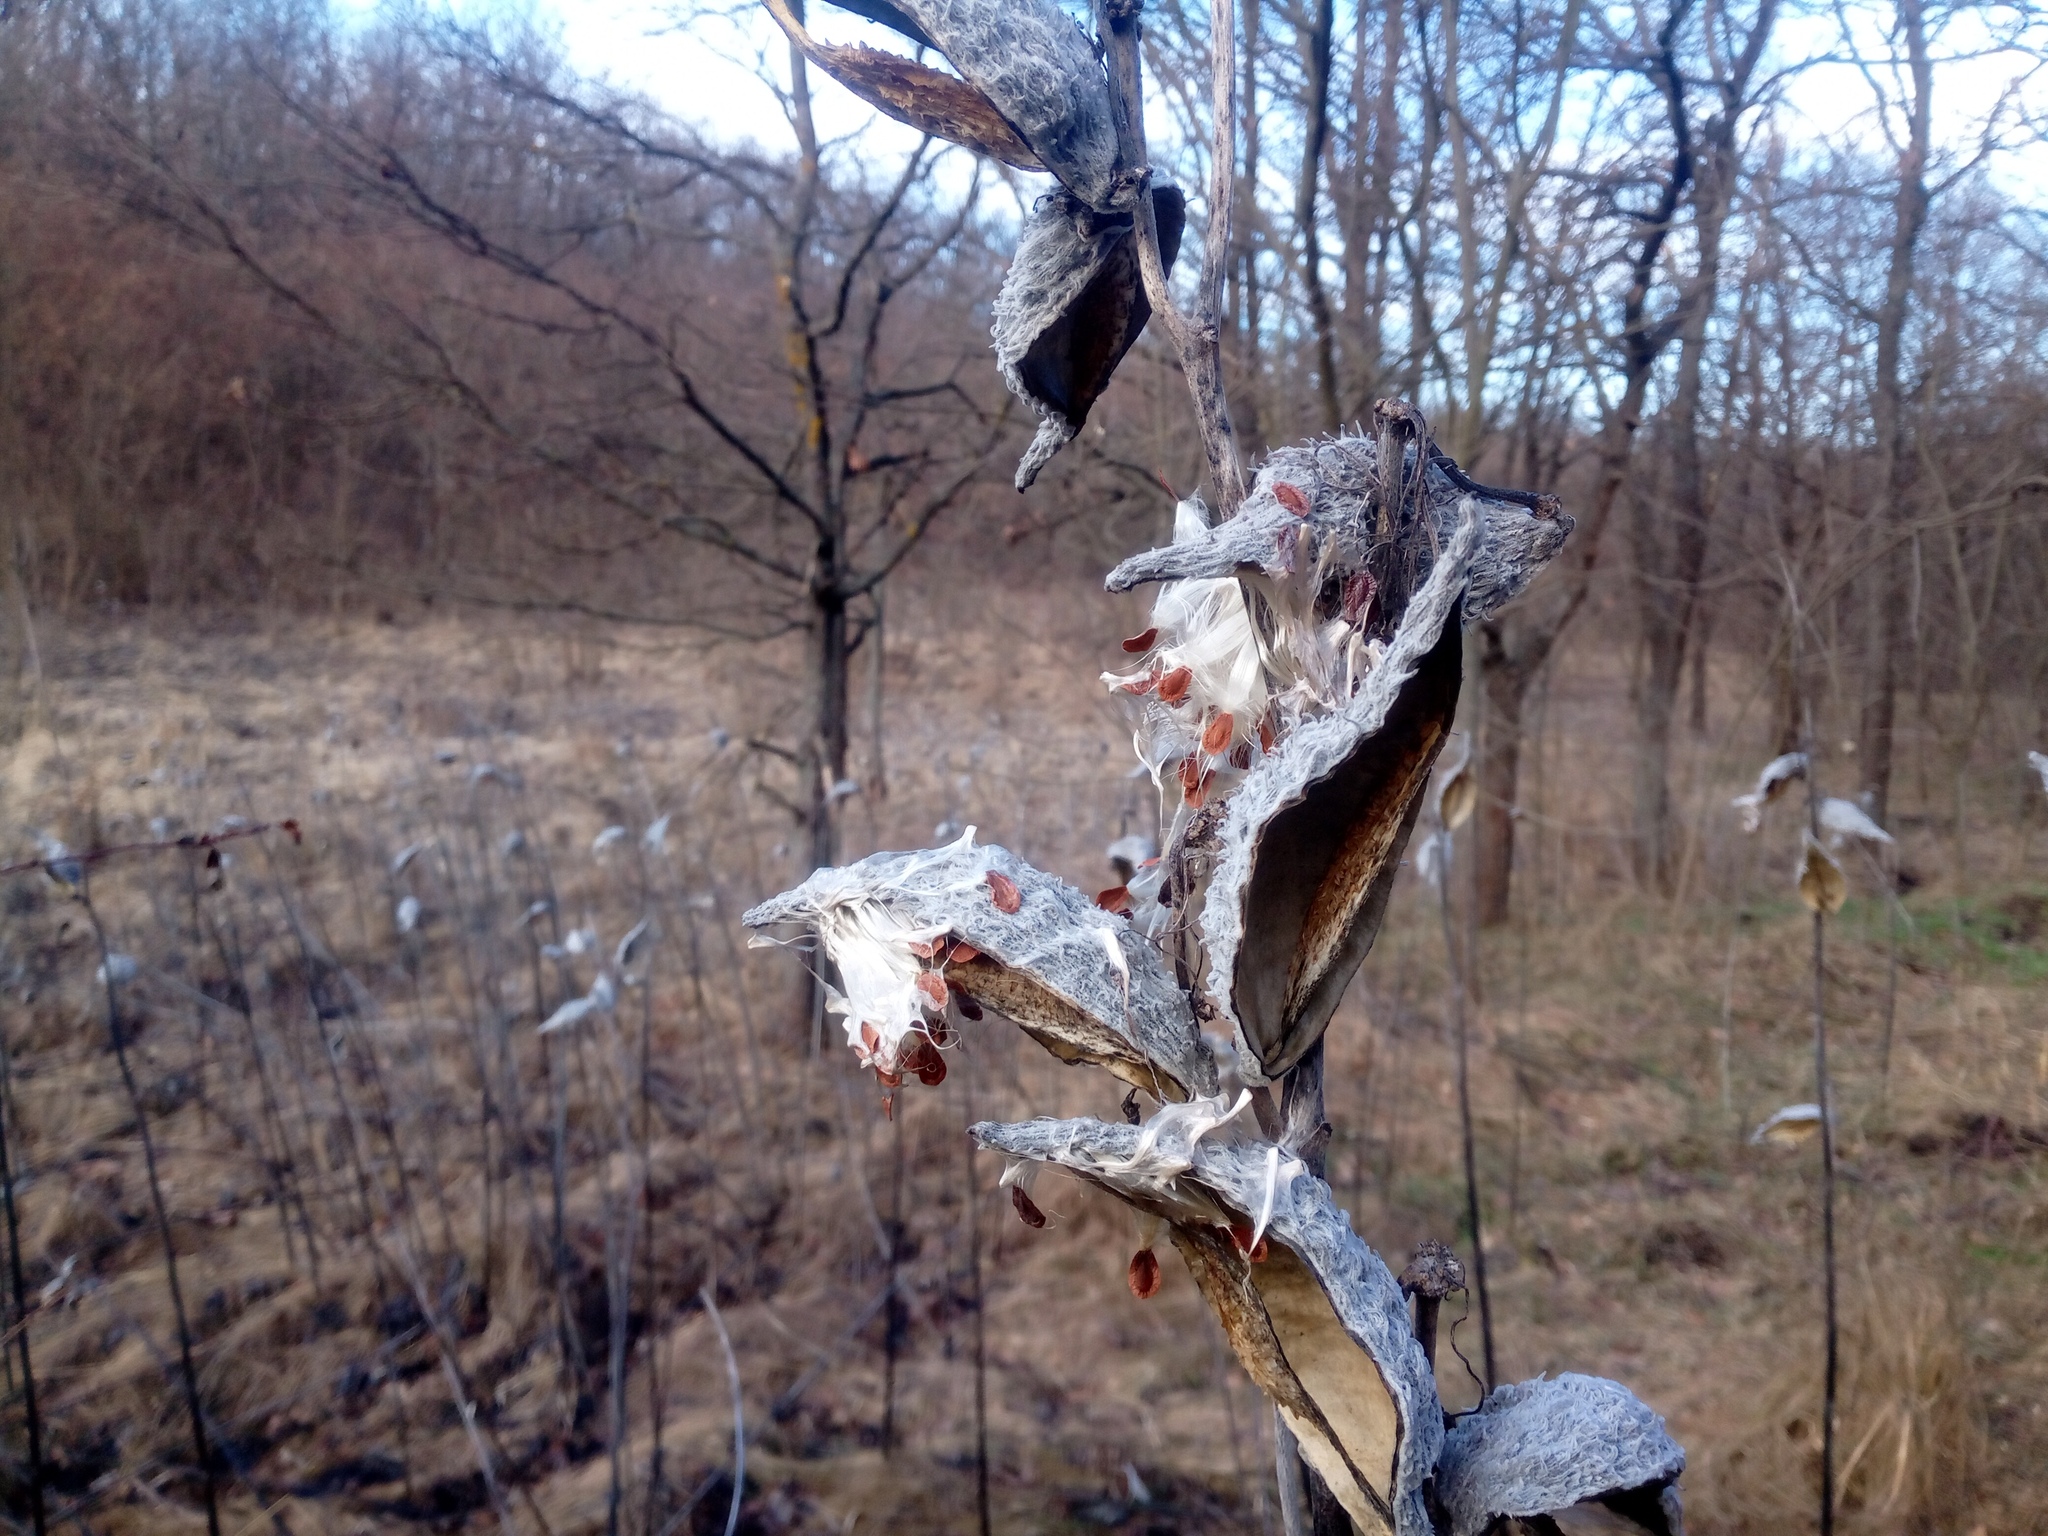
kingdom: Plantae
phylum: Tracheophyta
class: Magnoliopsida
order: Gentianales
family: Apocynaceae
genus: Asclepias
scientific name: Asclepias syriaca
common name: Common milkweed
